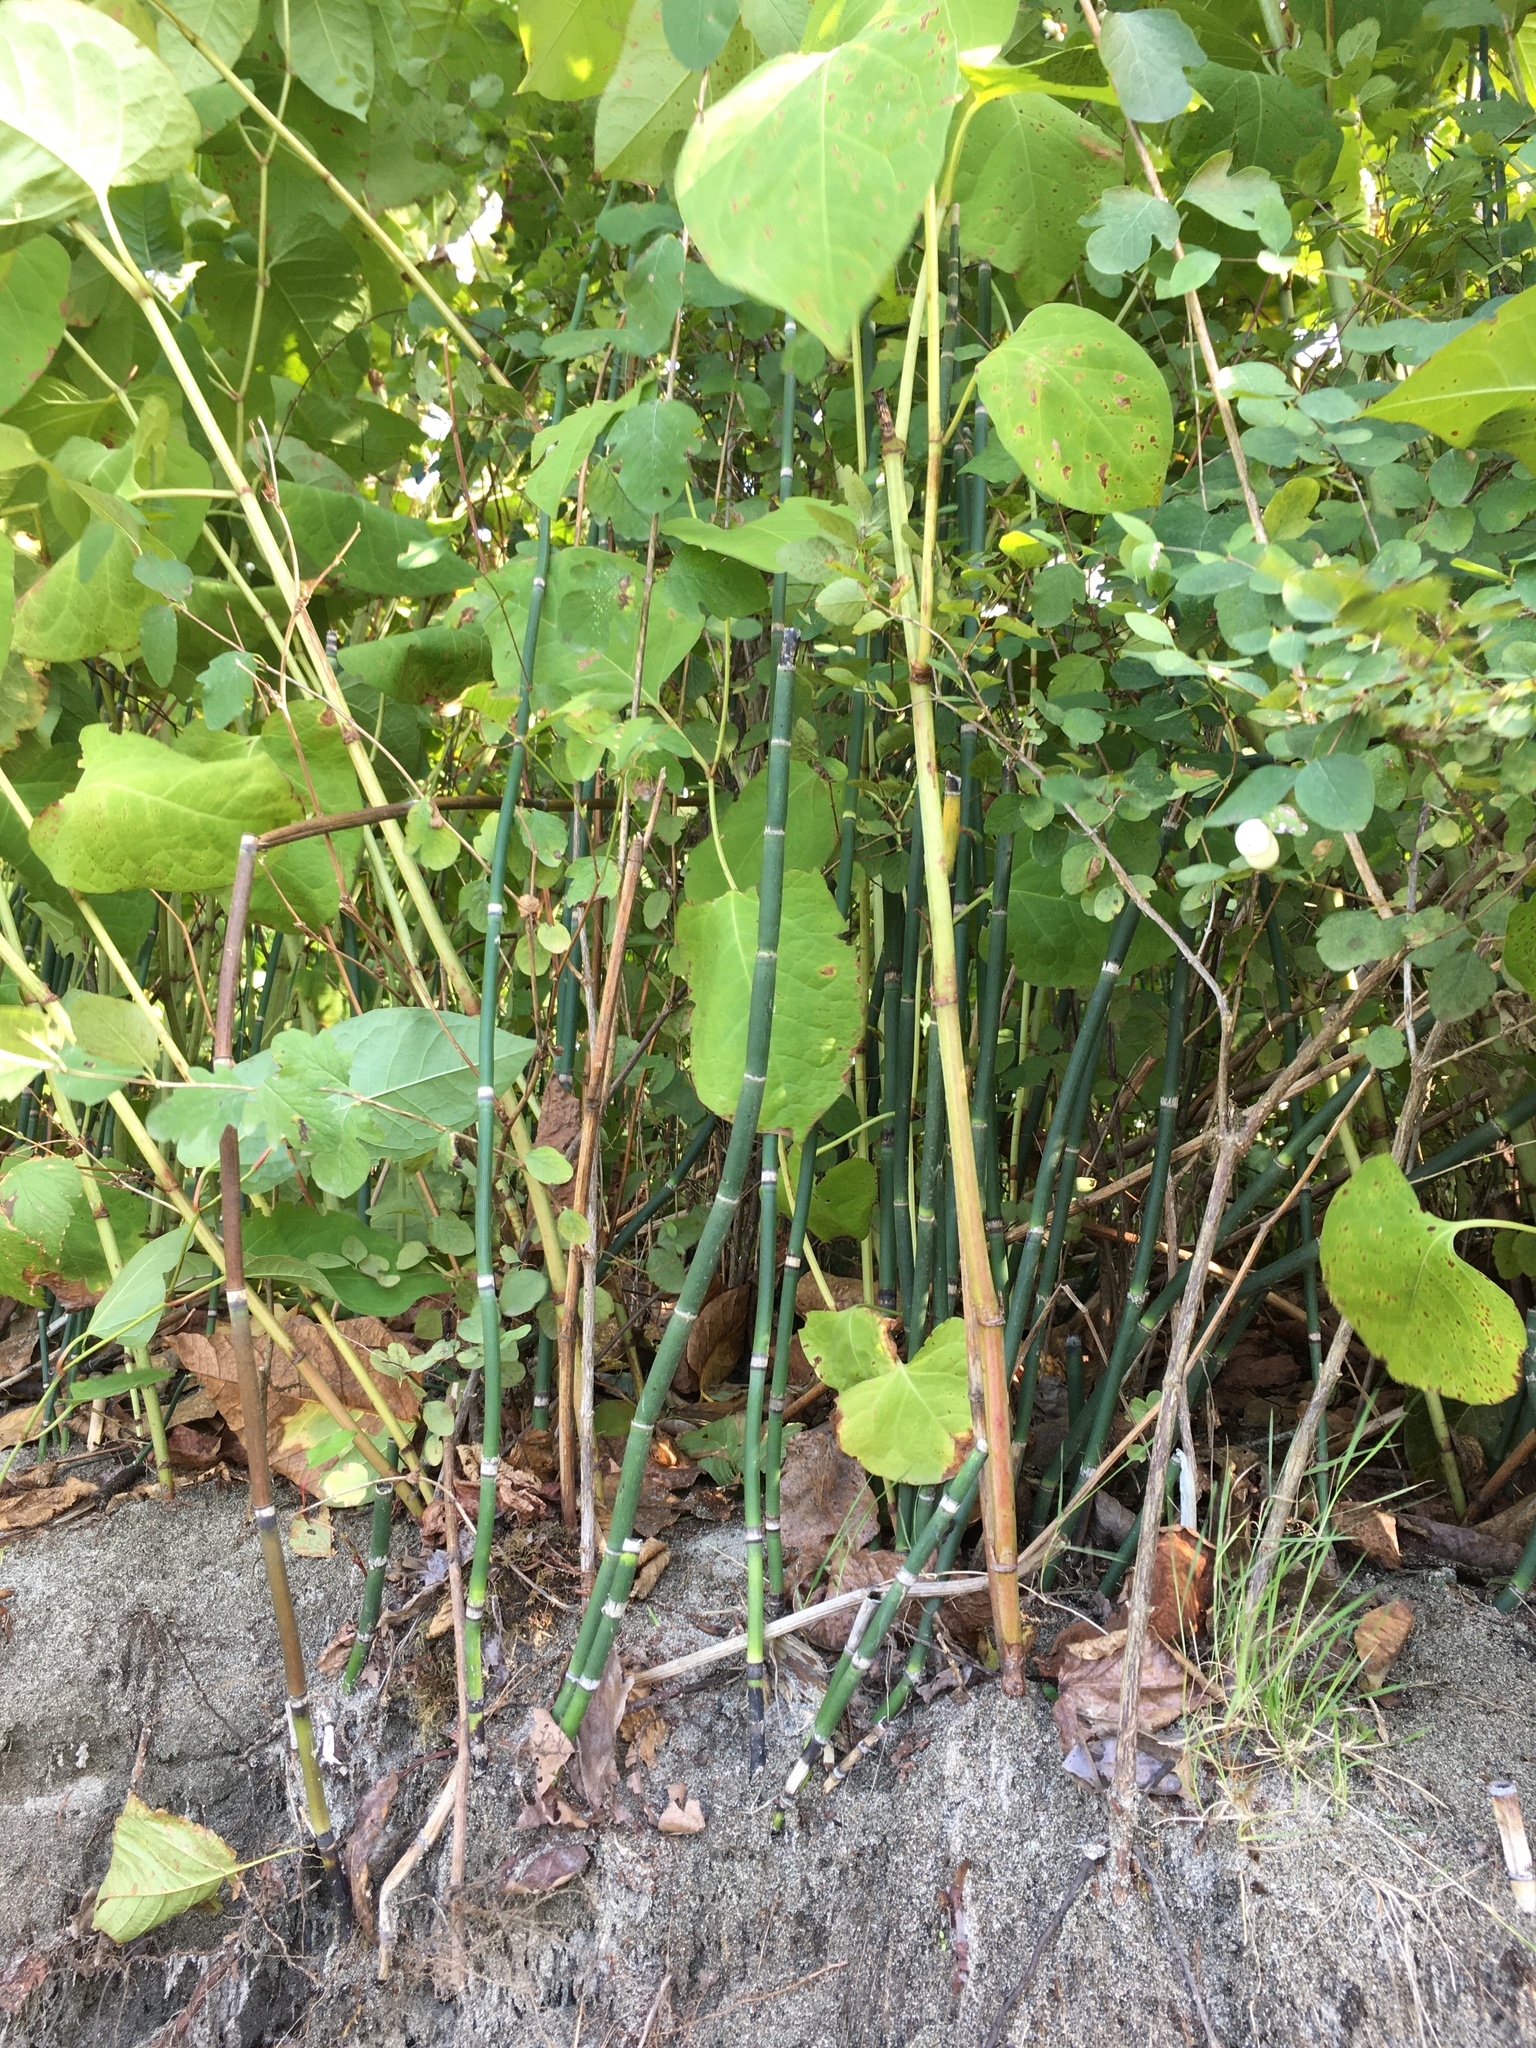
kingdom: Plantae
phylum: Tracheophyta
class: Polypodiopsida
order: Equisetales
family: Equisetaceae
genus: Equisetum
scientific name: Equisetum praealtum
